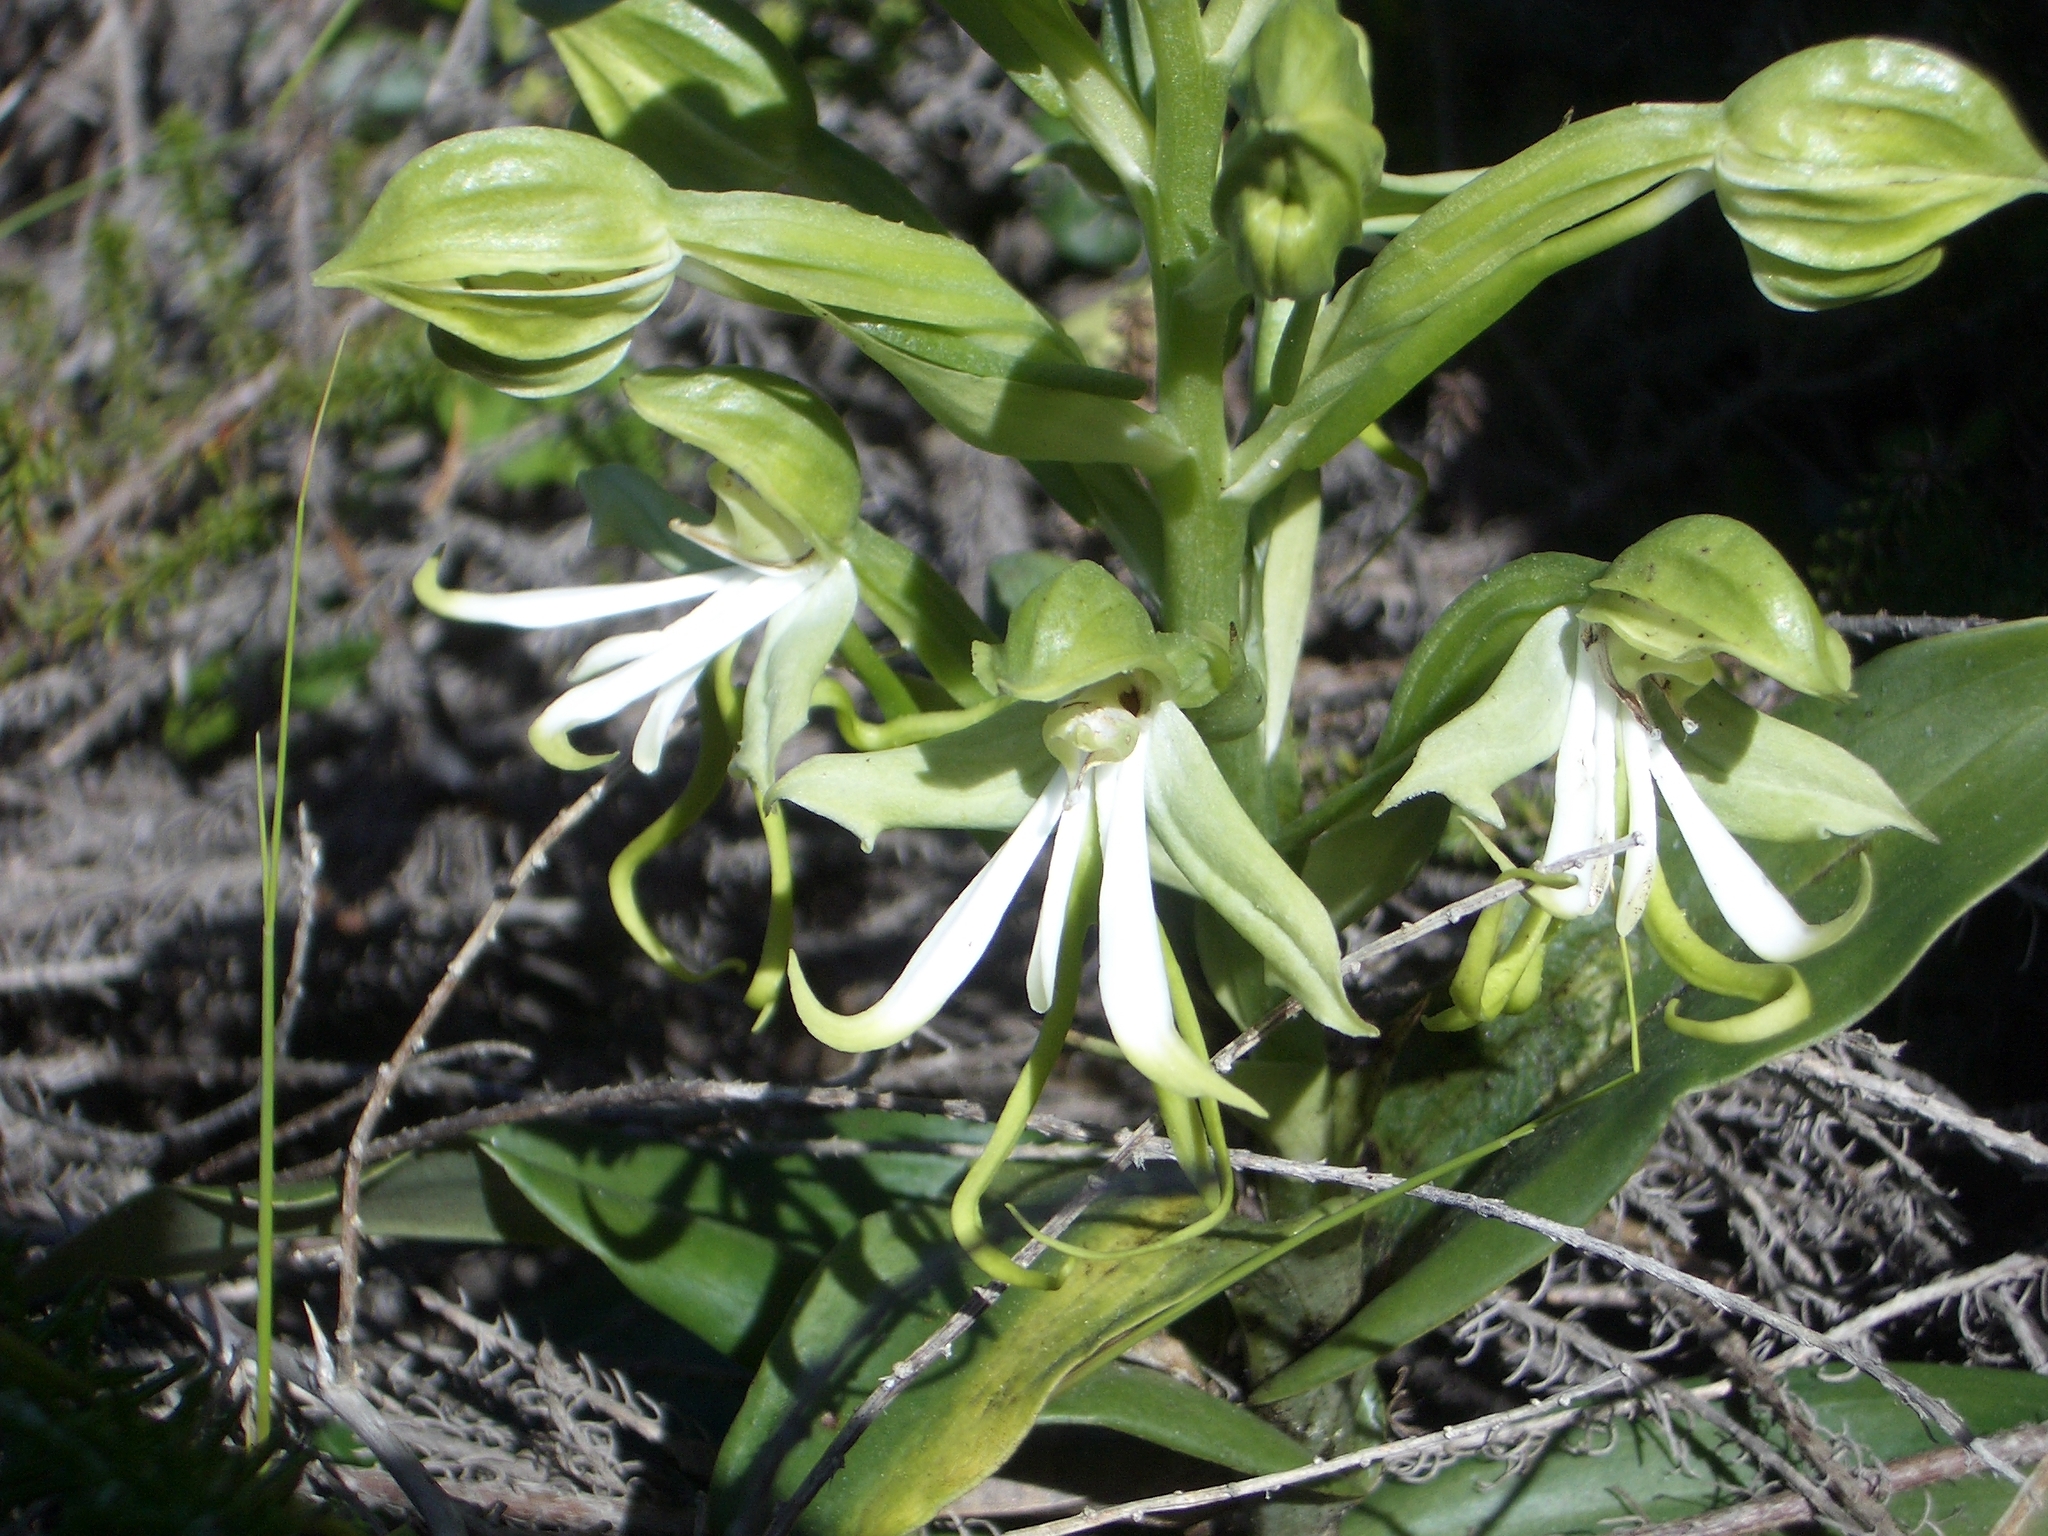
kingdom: Plantae
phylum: Tracheophyta
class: Liliopsida
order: Asparagales
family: Orchidaceae
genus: Bonatea
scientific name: Bonatea speciosa
